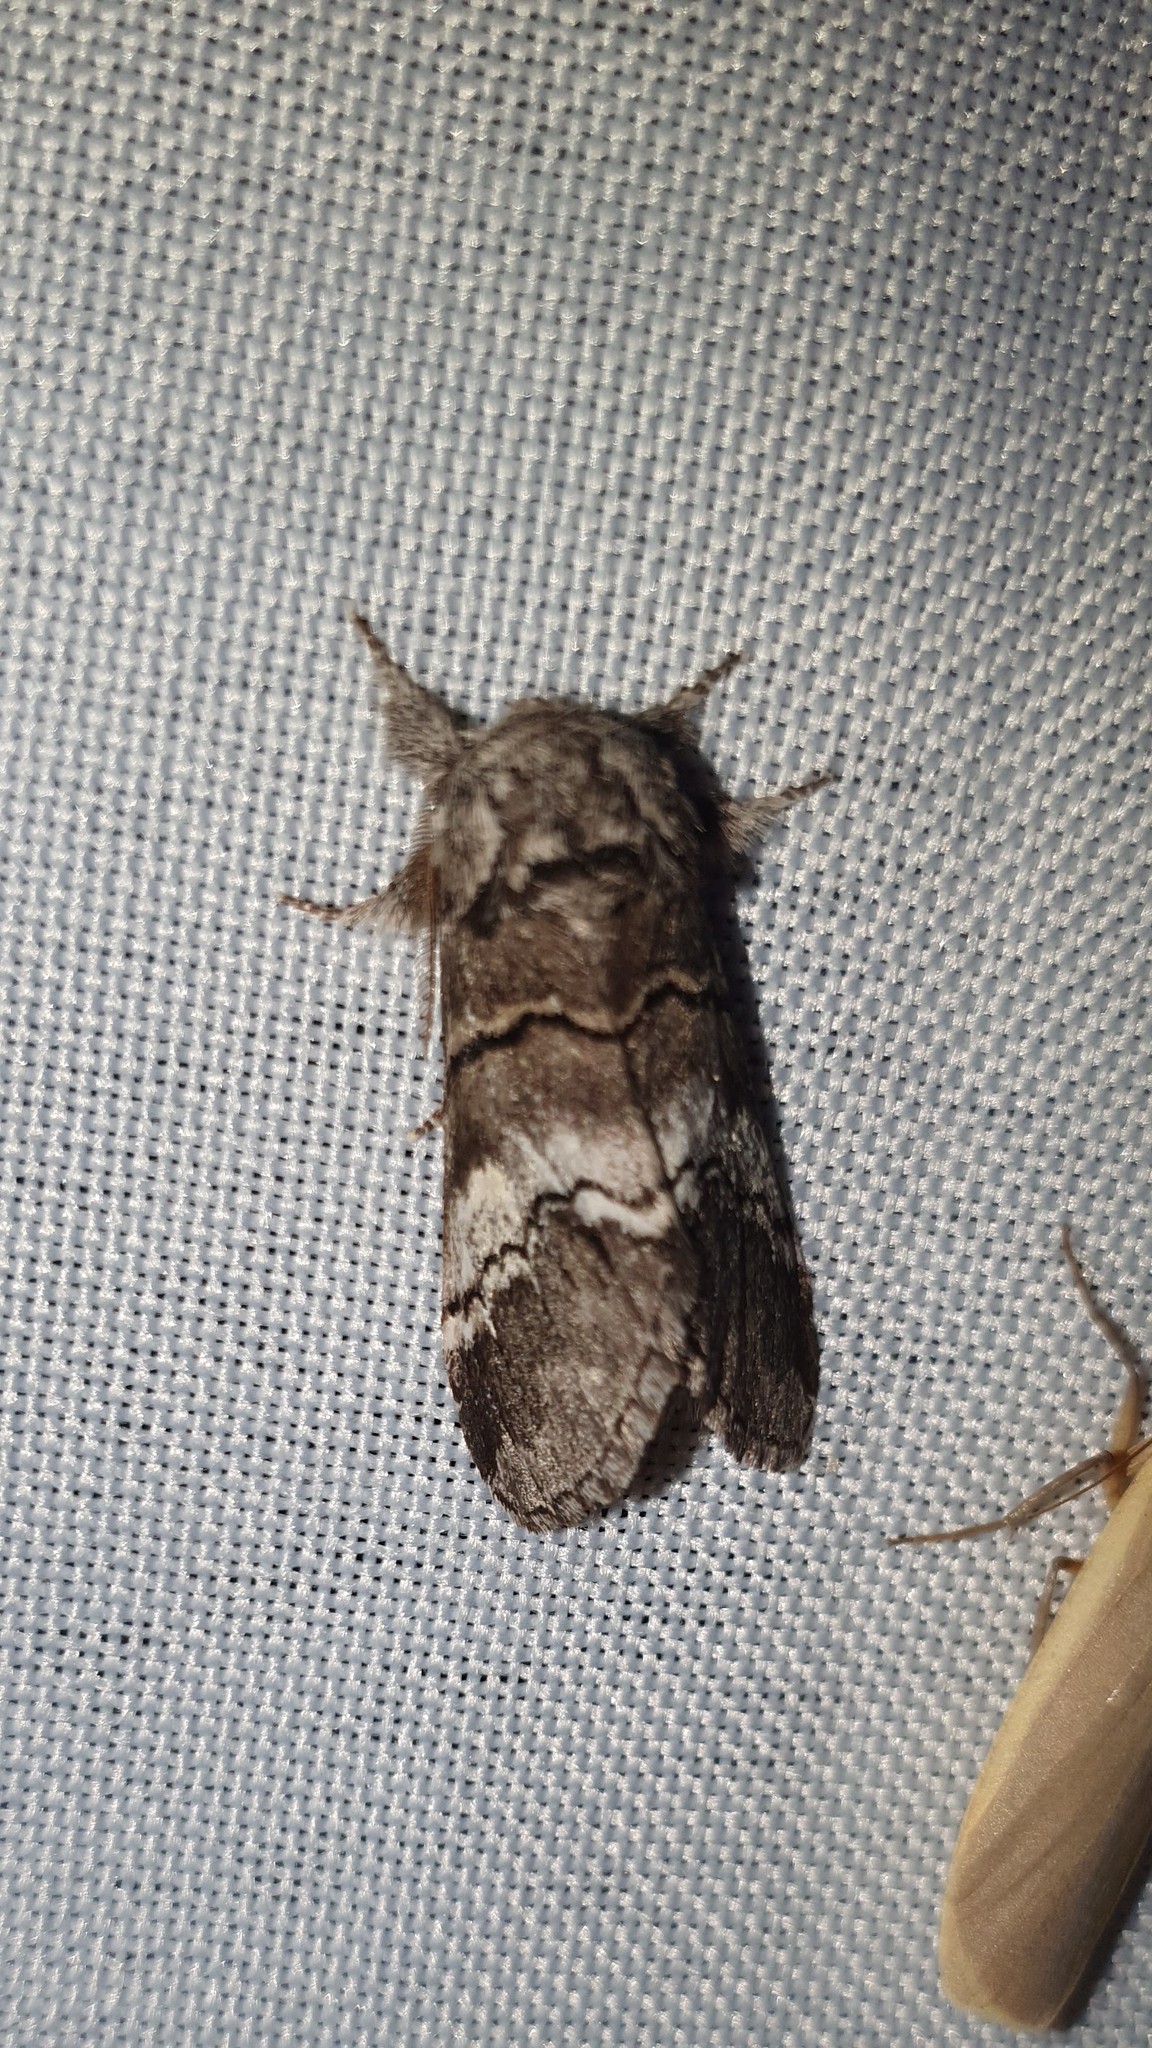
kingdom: Animalia
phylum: Arthropoda
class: Insecta
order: Lepidoptera
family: Notodontidae
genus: Drymonia
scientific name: Drymonia querna
